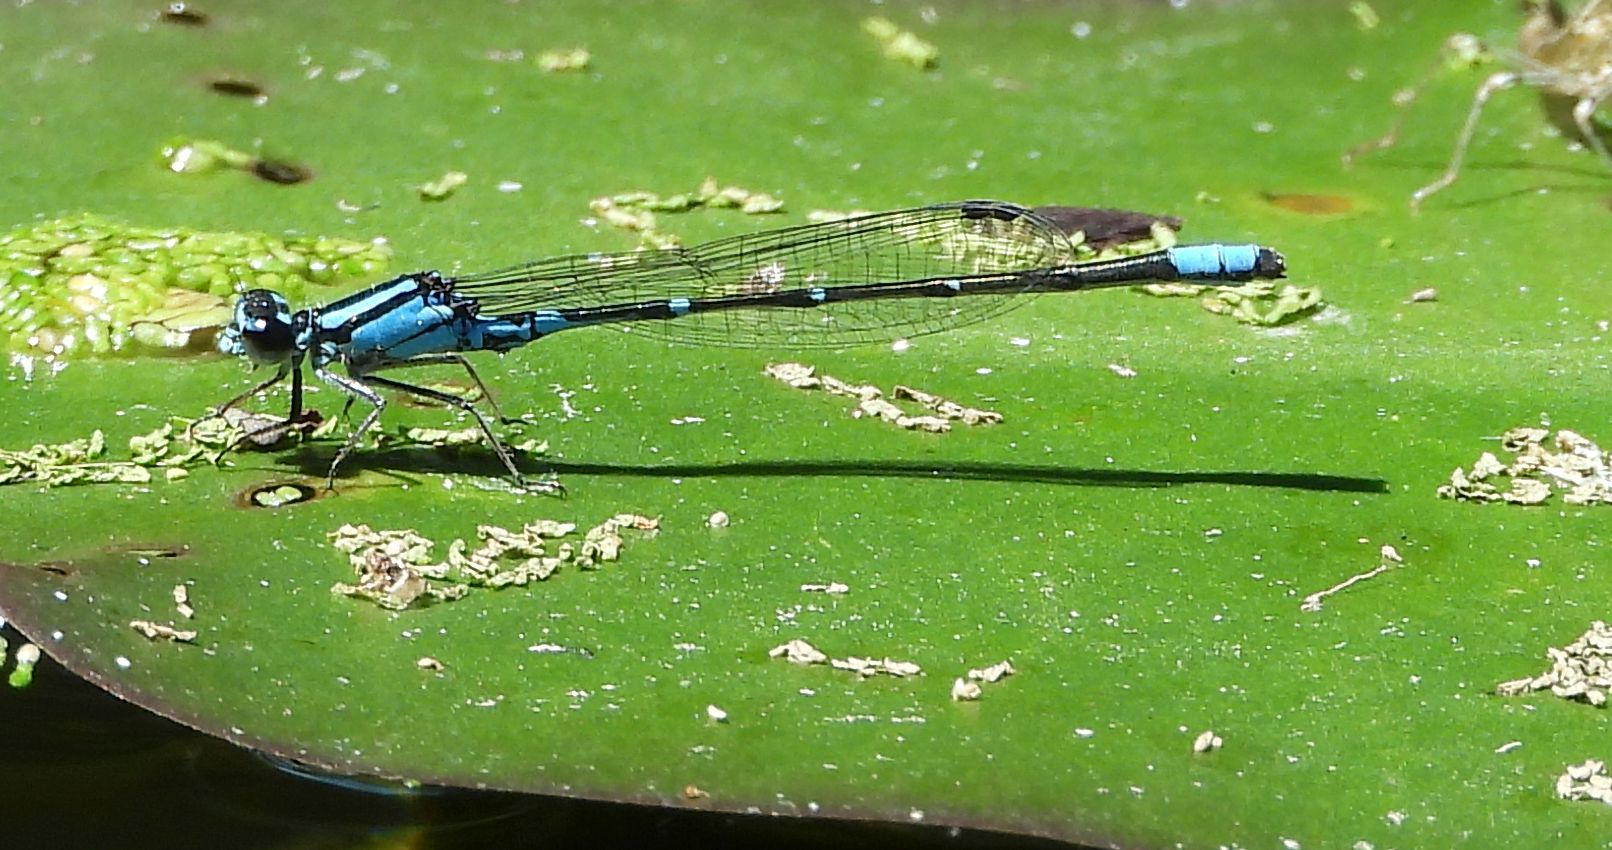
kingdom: Animalia
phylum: Arthropoda
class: Insecta
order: Odonata
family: Coenagrionidae
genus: Enallagma
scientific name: Enallagma geminatum
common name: Skimming bluet
